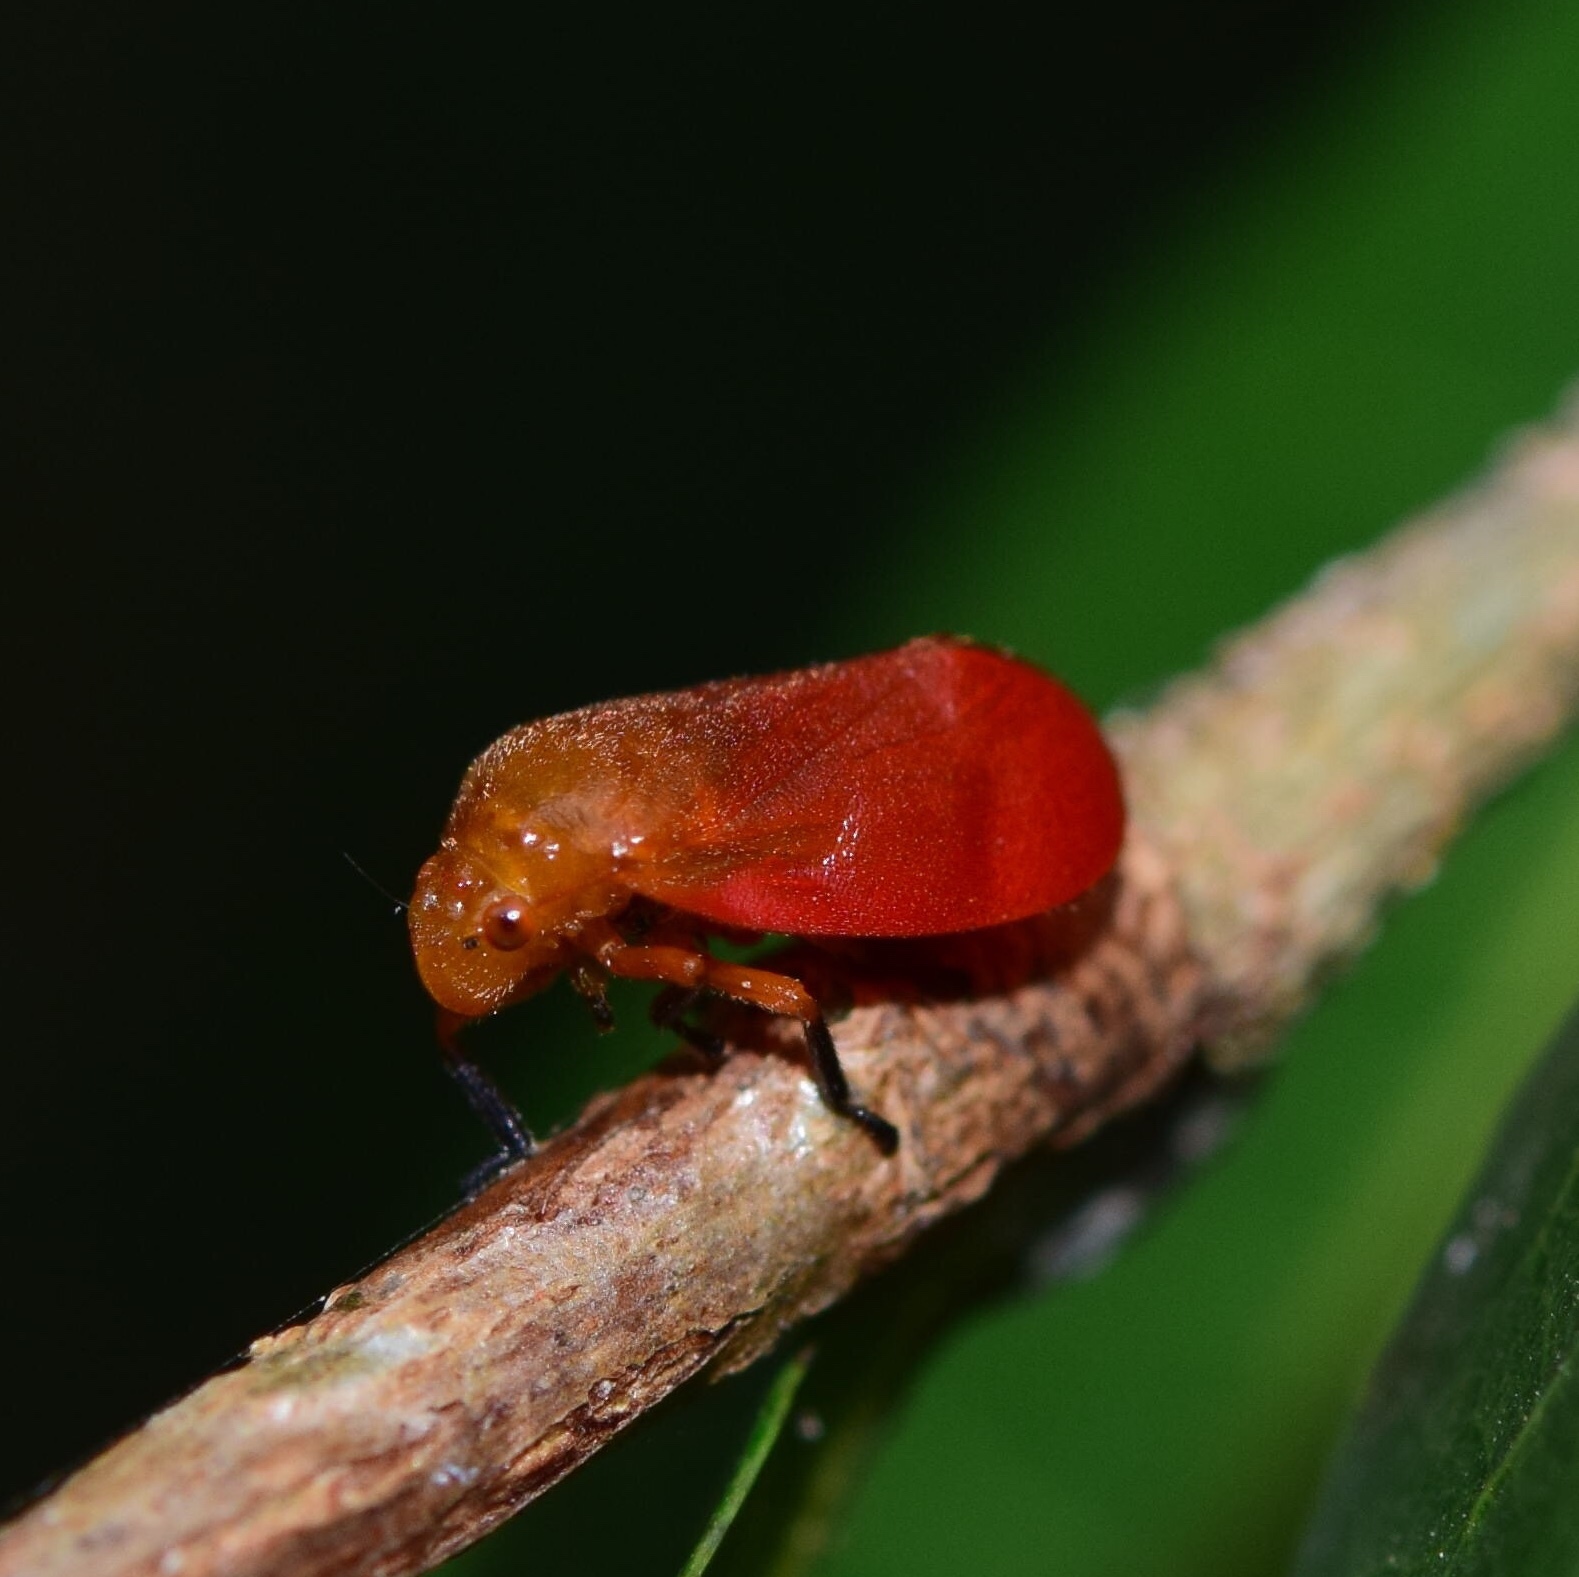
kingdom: Animalia
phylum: Arthropoda
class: Insecta
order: Hemiptera
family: Cercopidae
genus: Bandusia
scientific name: Bandusia rubicunda
